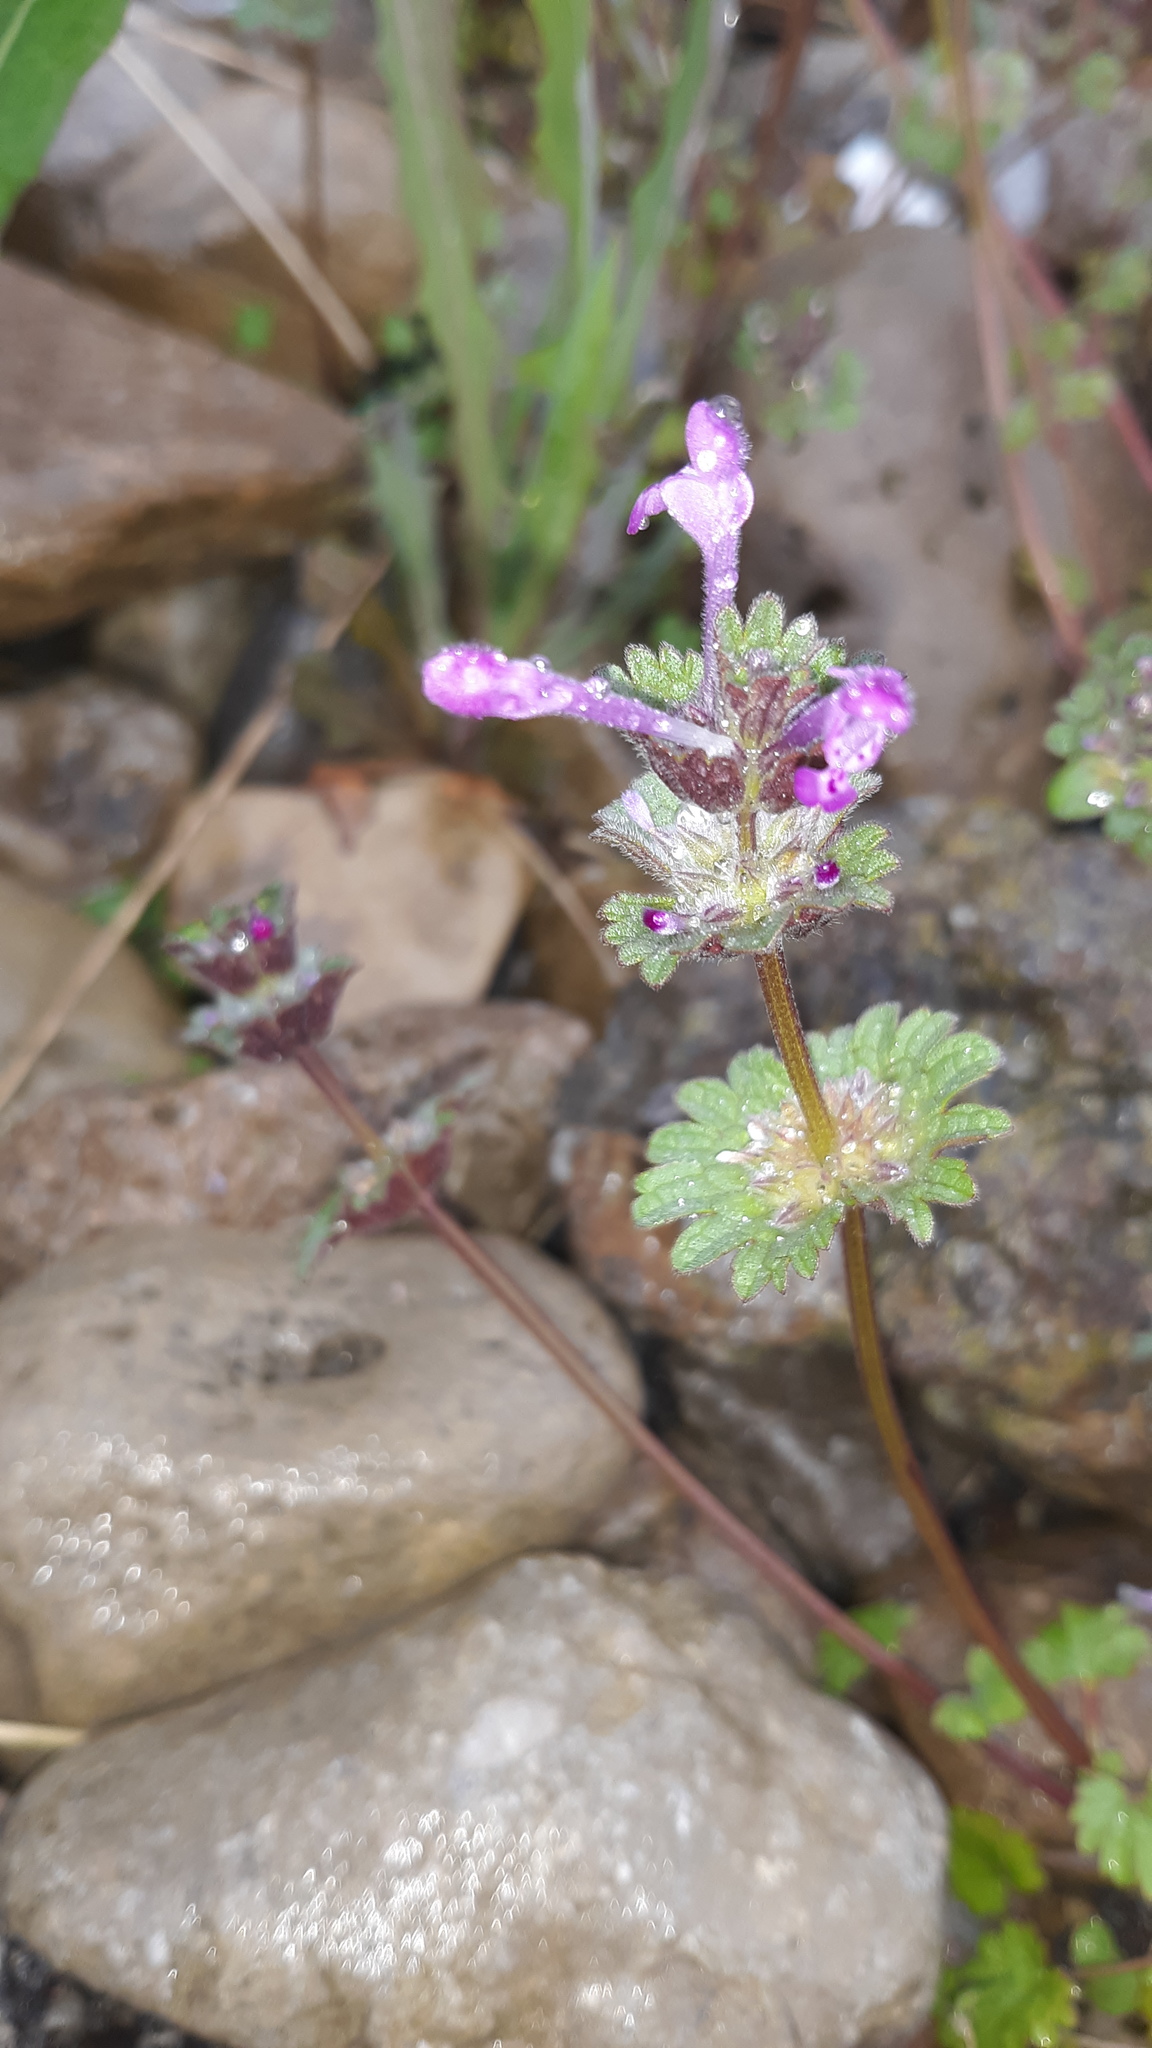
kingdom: Plantae
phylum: Tracheophyta
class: Magnoliopsida
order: Lamiales
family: Lamiaceae
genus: Lamium
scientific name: Lamium amplexicaule
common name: Henbit dead-nettle
